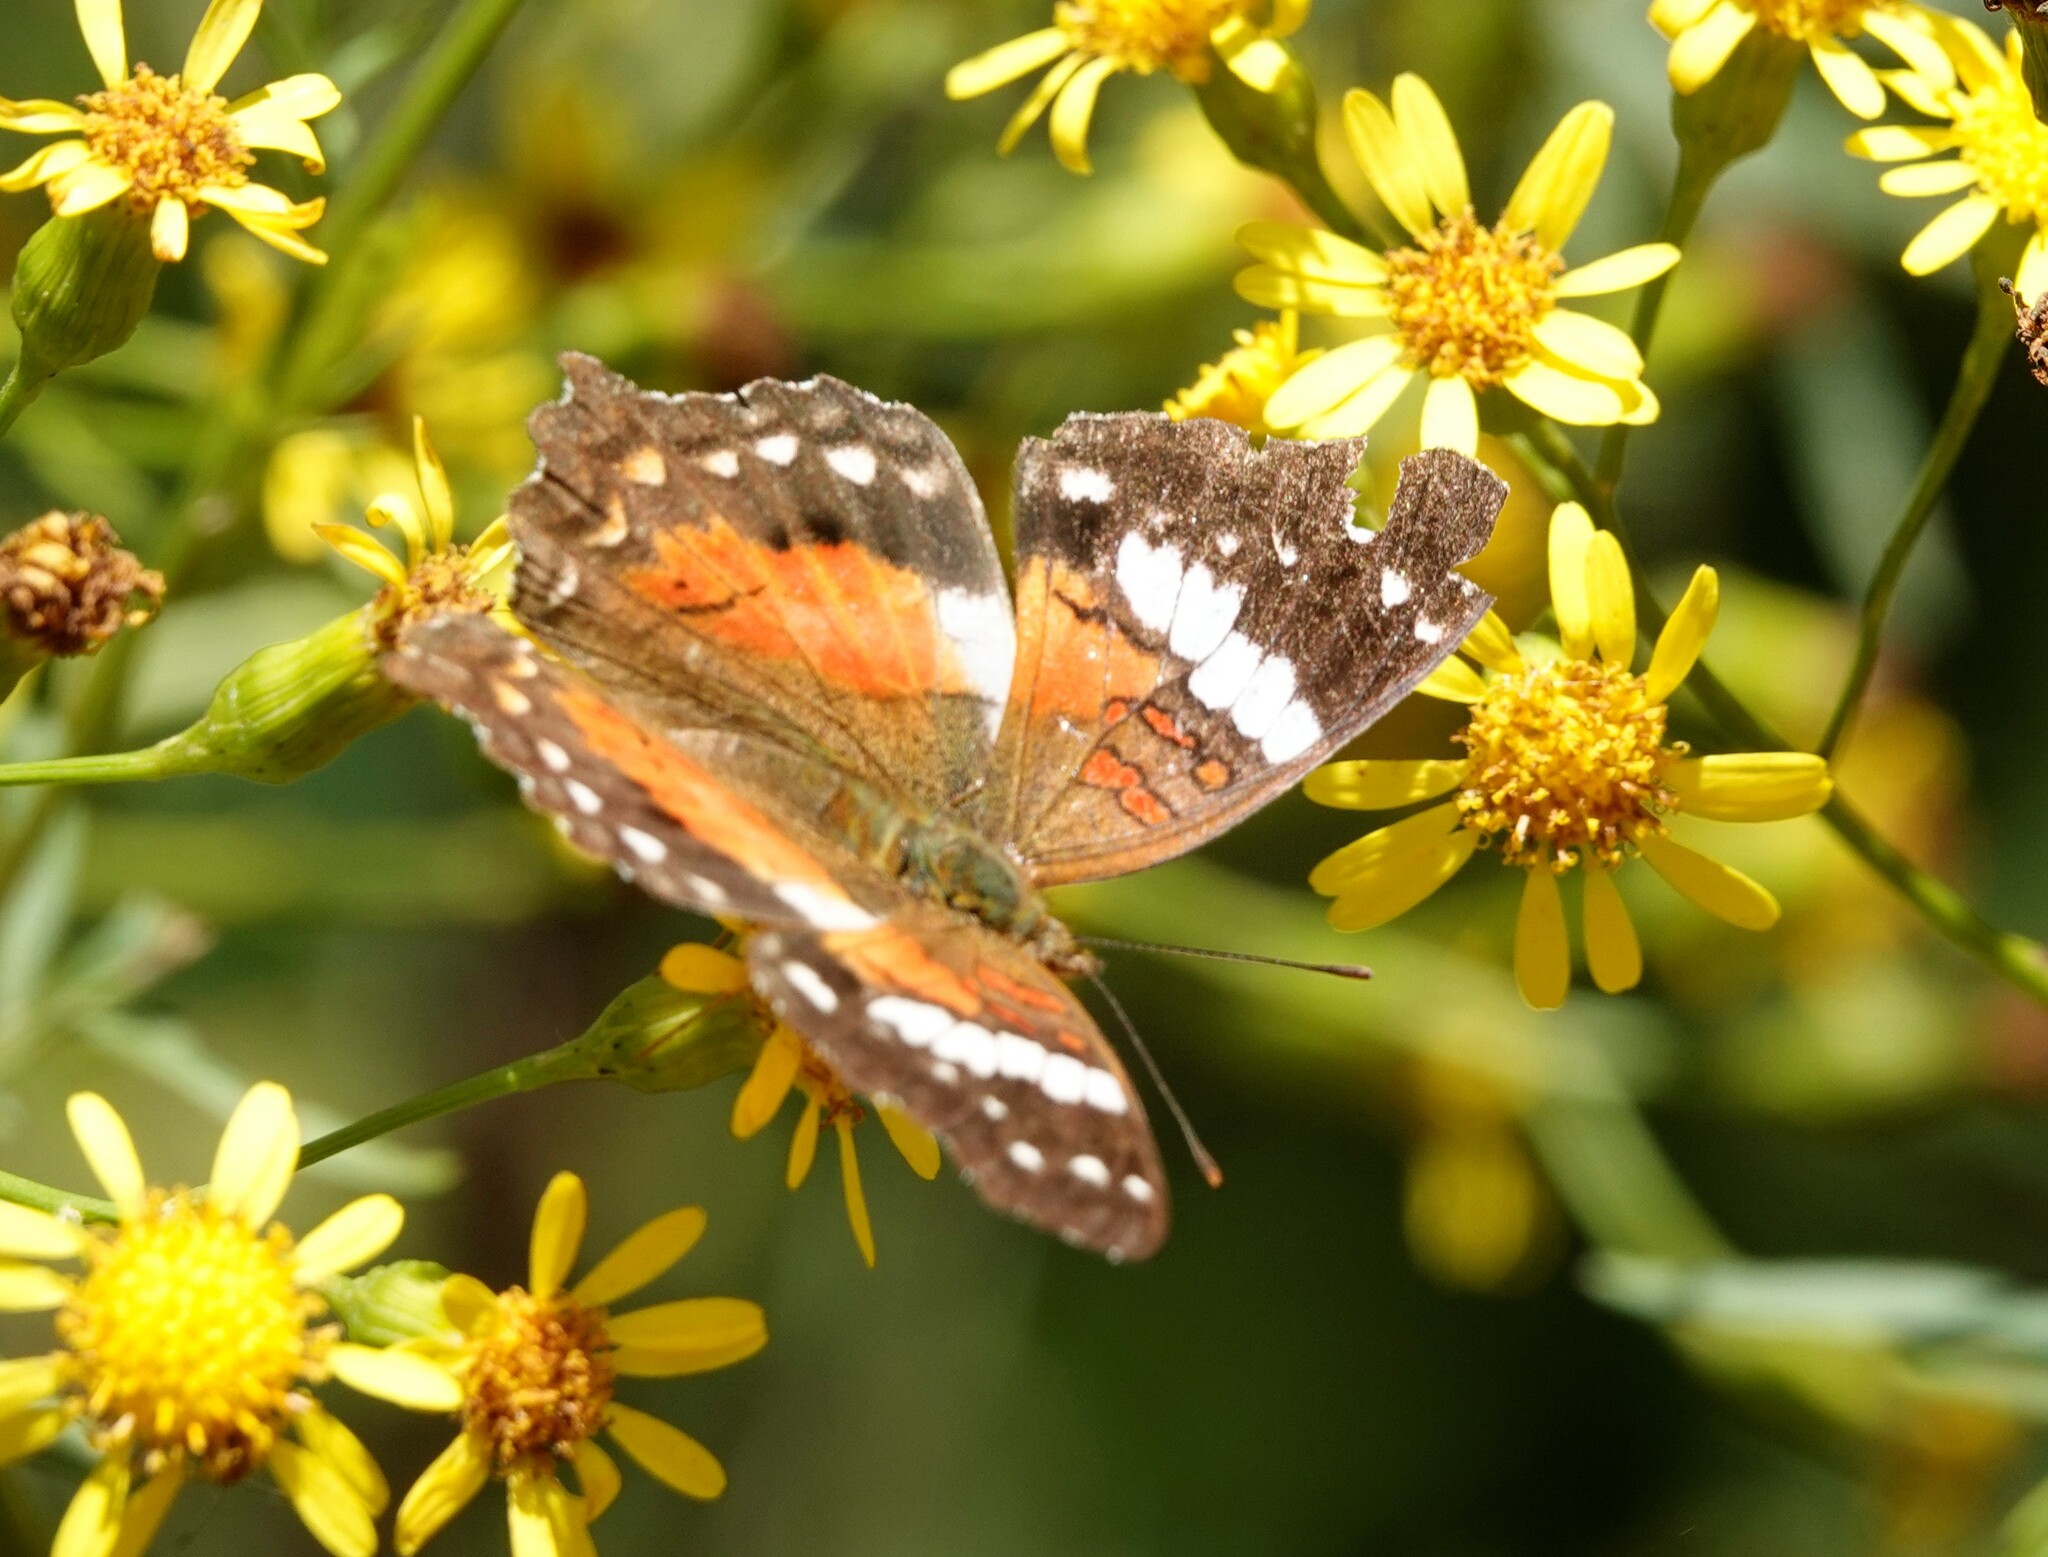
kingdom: Animalia
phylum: Arthropoda
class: Insecta
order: Lepidoptera
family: Nymphalidae
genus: Anartia
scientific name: Anartia amathea
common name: Red peacock
